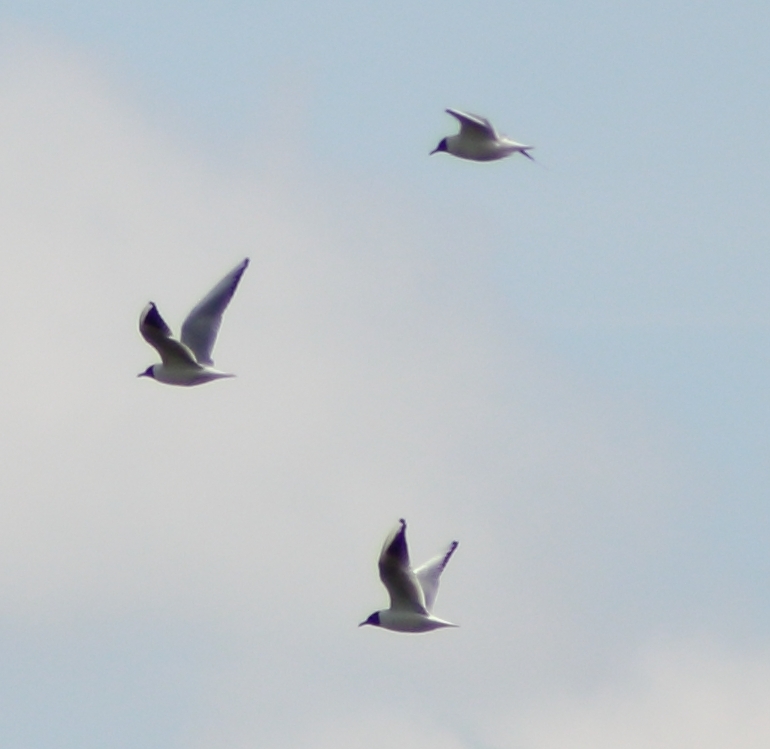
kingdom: Animalia
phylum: Chordata
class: Aves
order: Charadriiformes
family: Laridae
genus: Chroicocephalus
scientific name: Chroicocephalus ridibundus
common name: Black-headed gull
